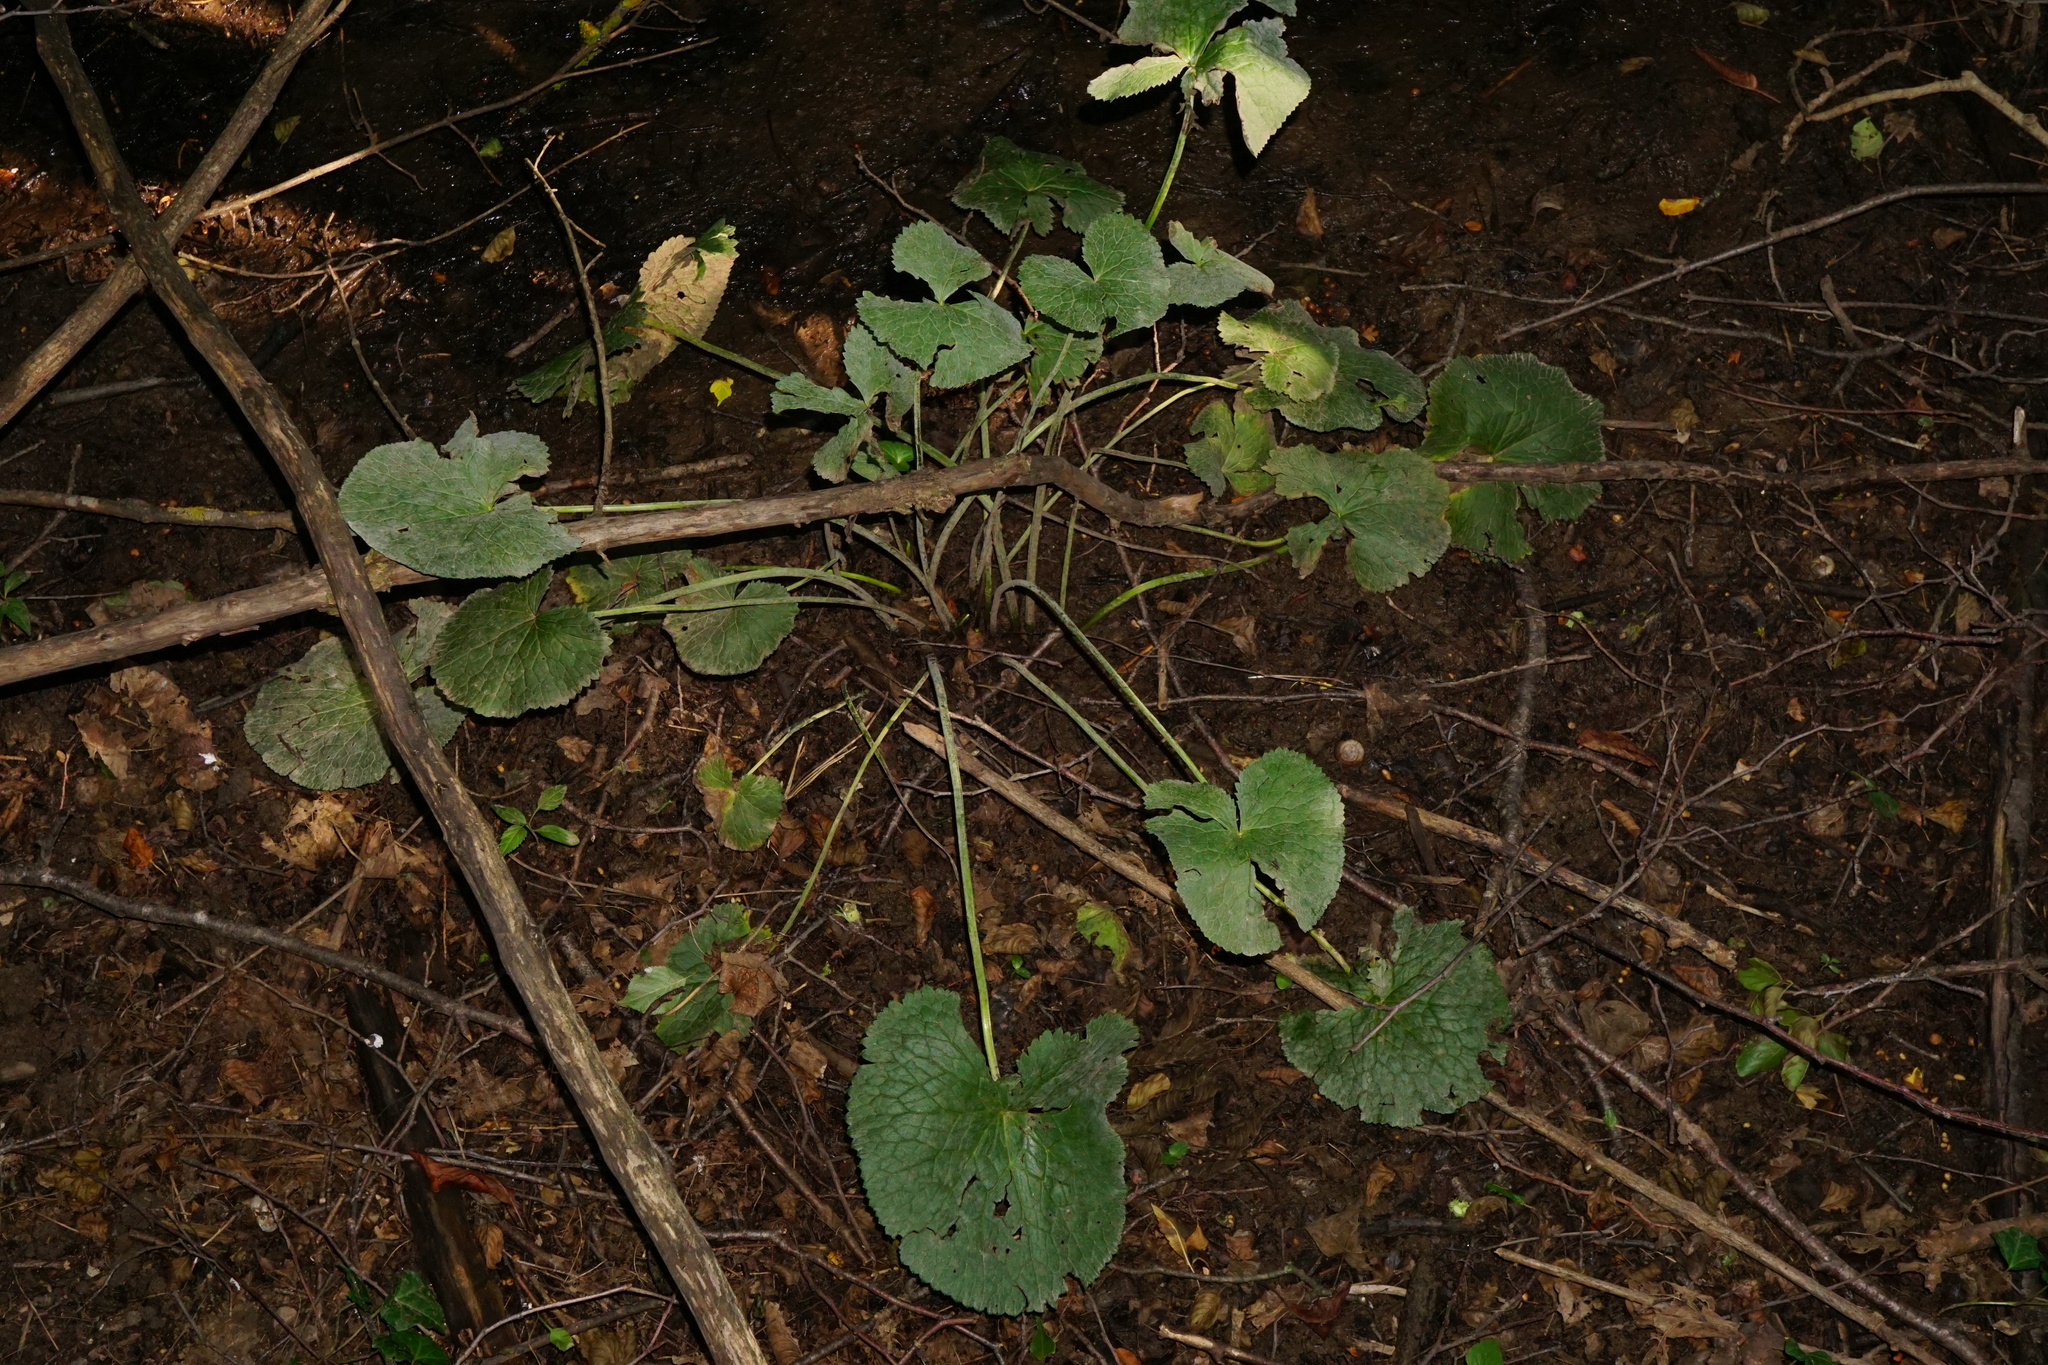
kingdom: Plantae
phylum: Tracheophyta
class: Magnoliopsida
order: Ranunculales
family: Ranunculaceae
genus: Caltha
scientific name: Caltha palustris
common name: Marsh marigold
